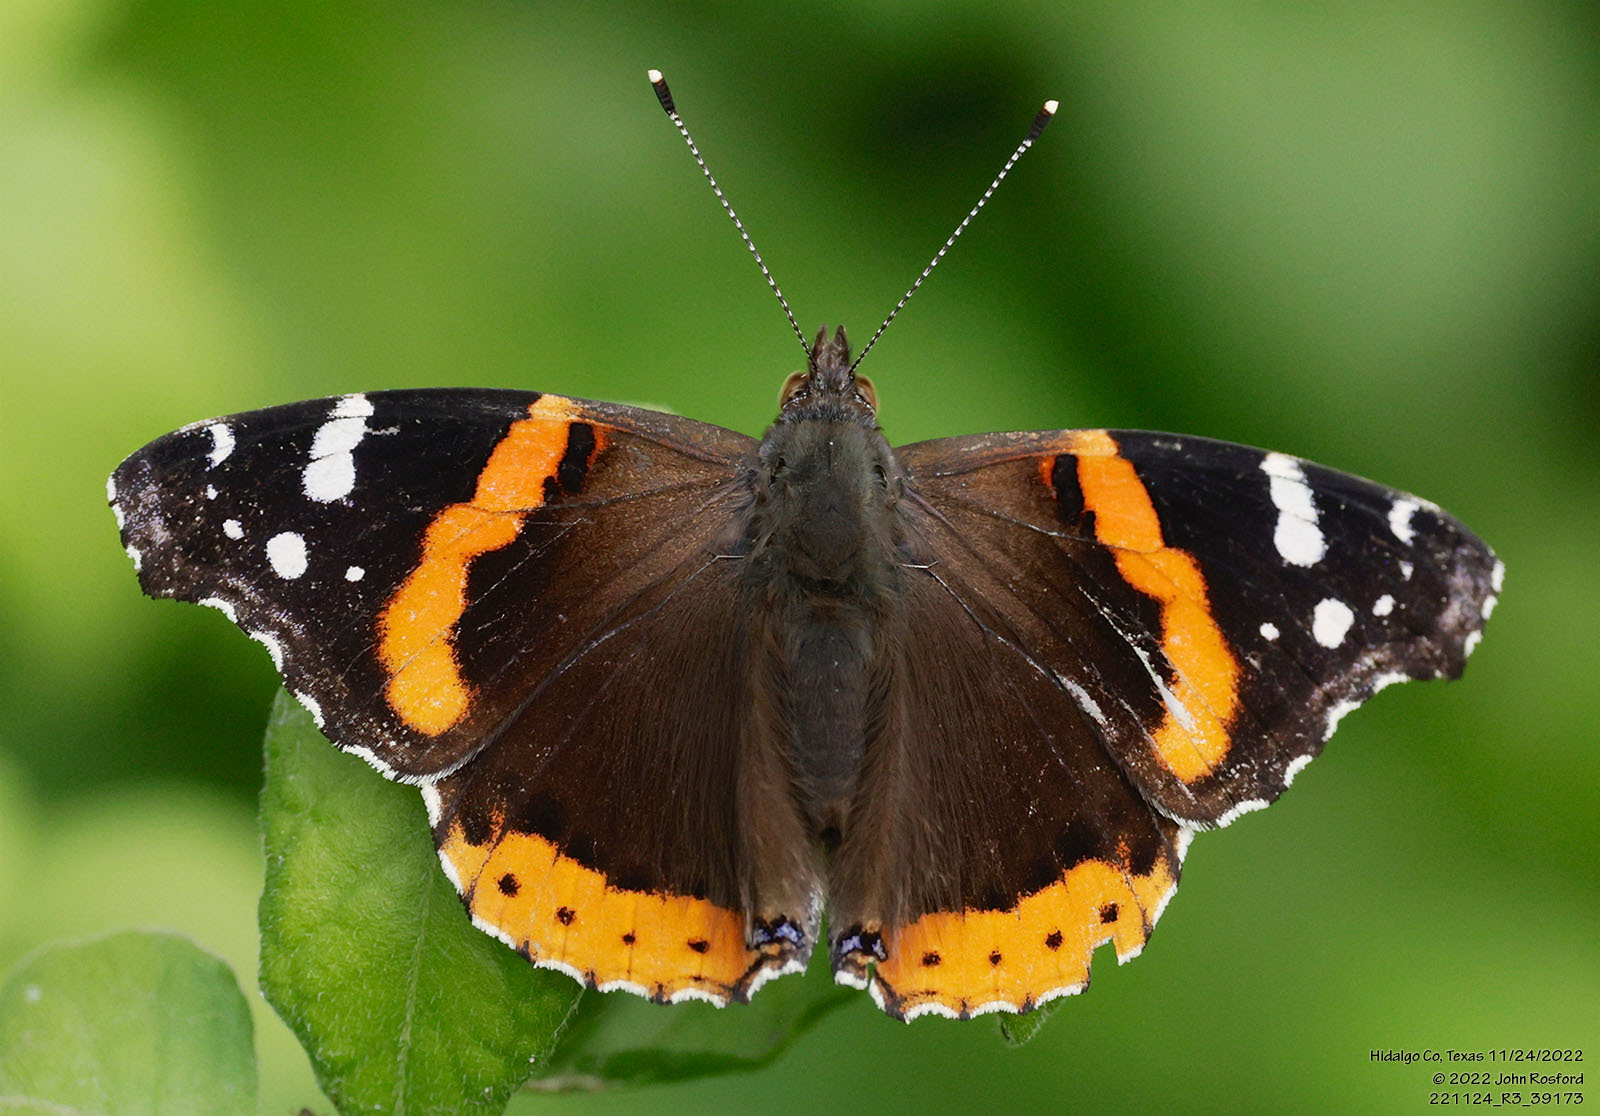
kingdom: Animalia
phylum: Arthropoda
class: Insecta
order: Lepidoptera
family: Nymphalidae
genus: Vanessa
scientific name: Vanessa atalanta
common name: Red admiral
